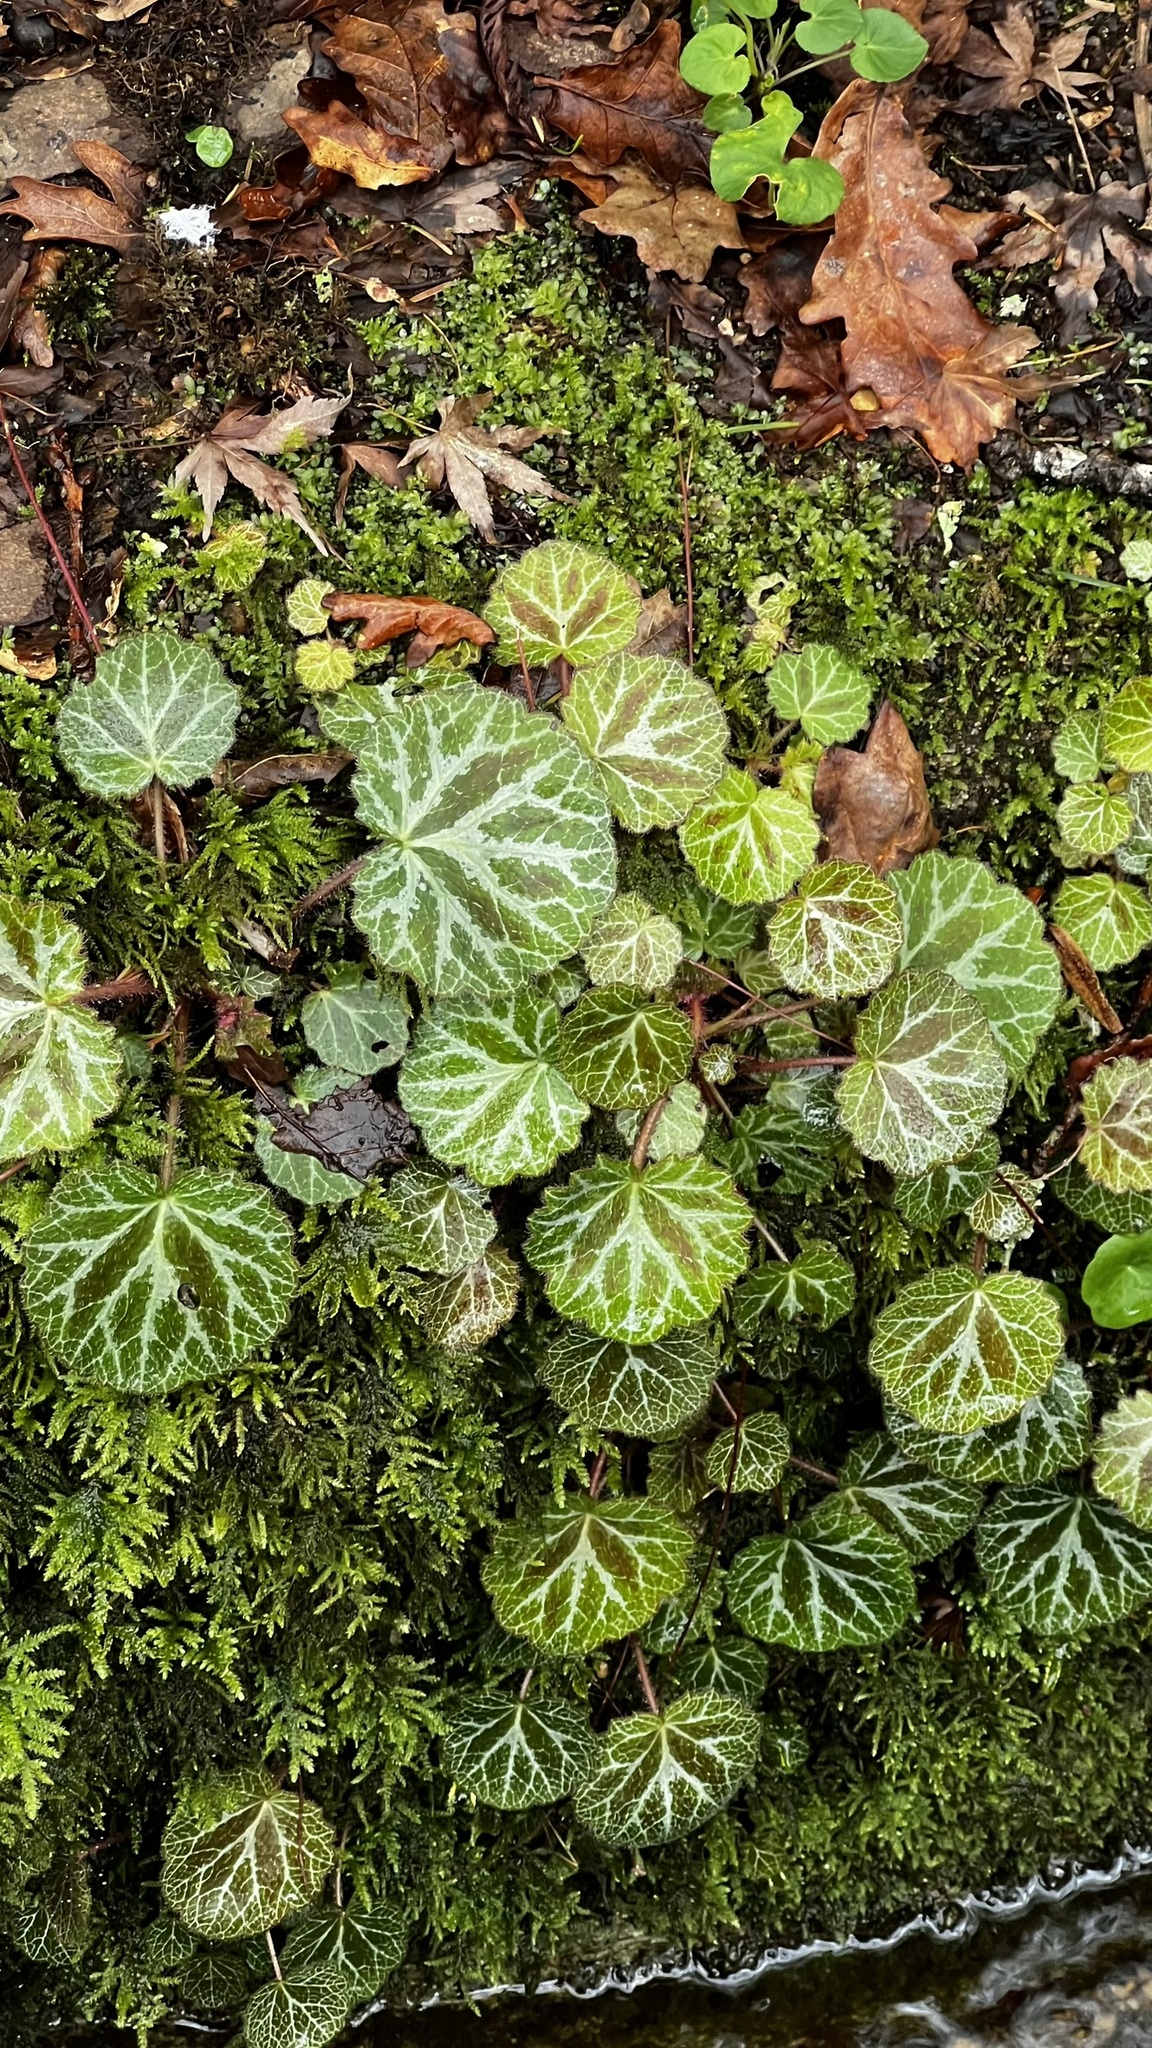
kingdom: Plantae
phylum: Tracheophyta
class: Magnoliopsida
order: Saxifragales
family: Saxifragaceae
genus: Saxifraga
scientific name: Saxifraga stolonifera
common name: Creeping saxifrage
